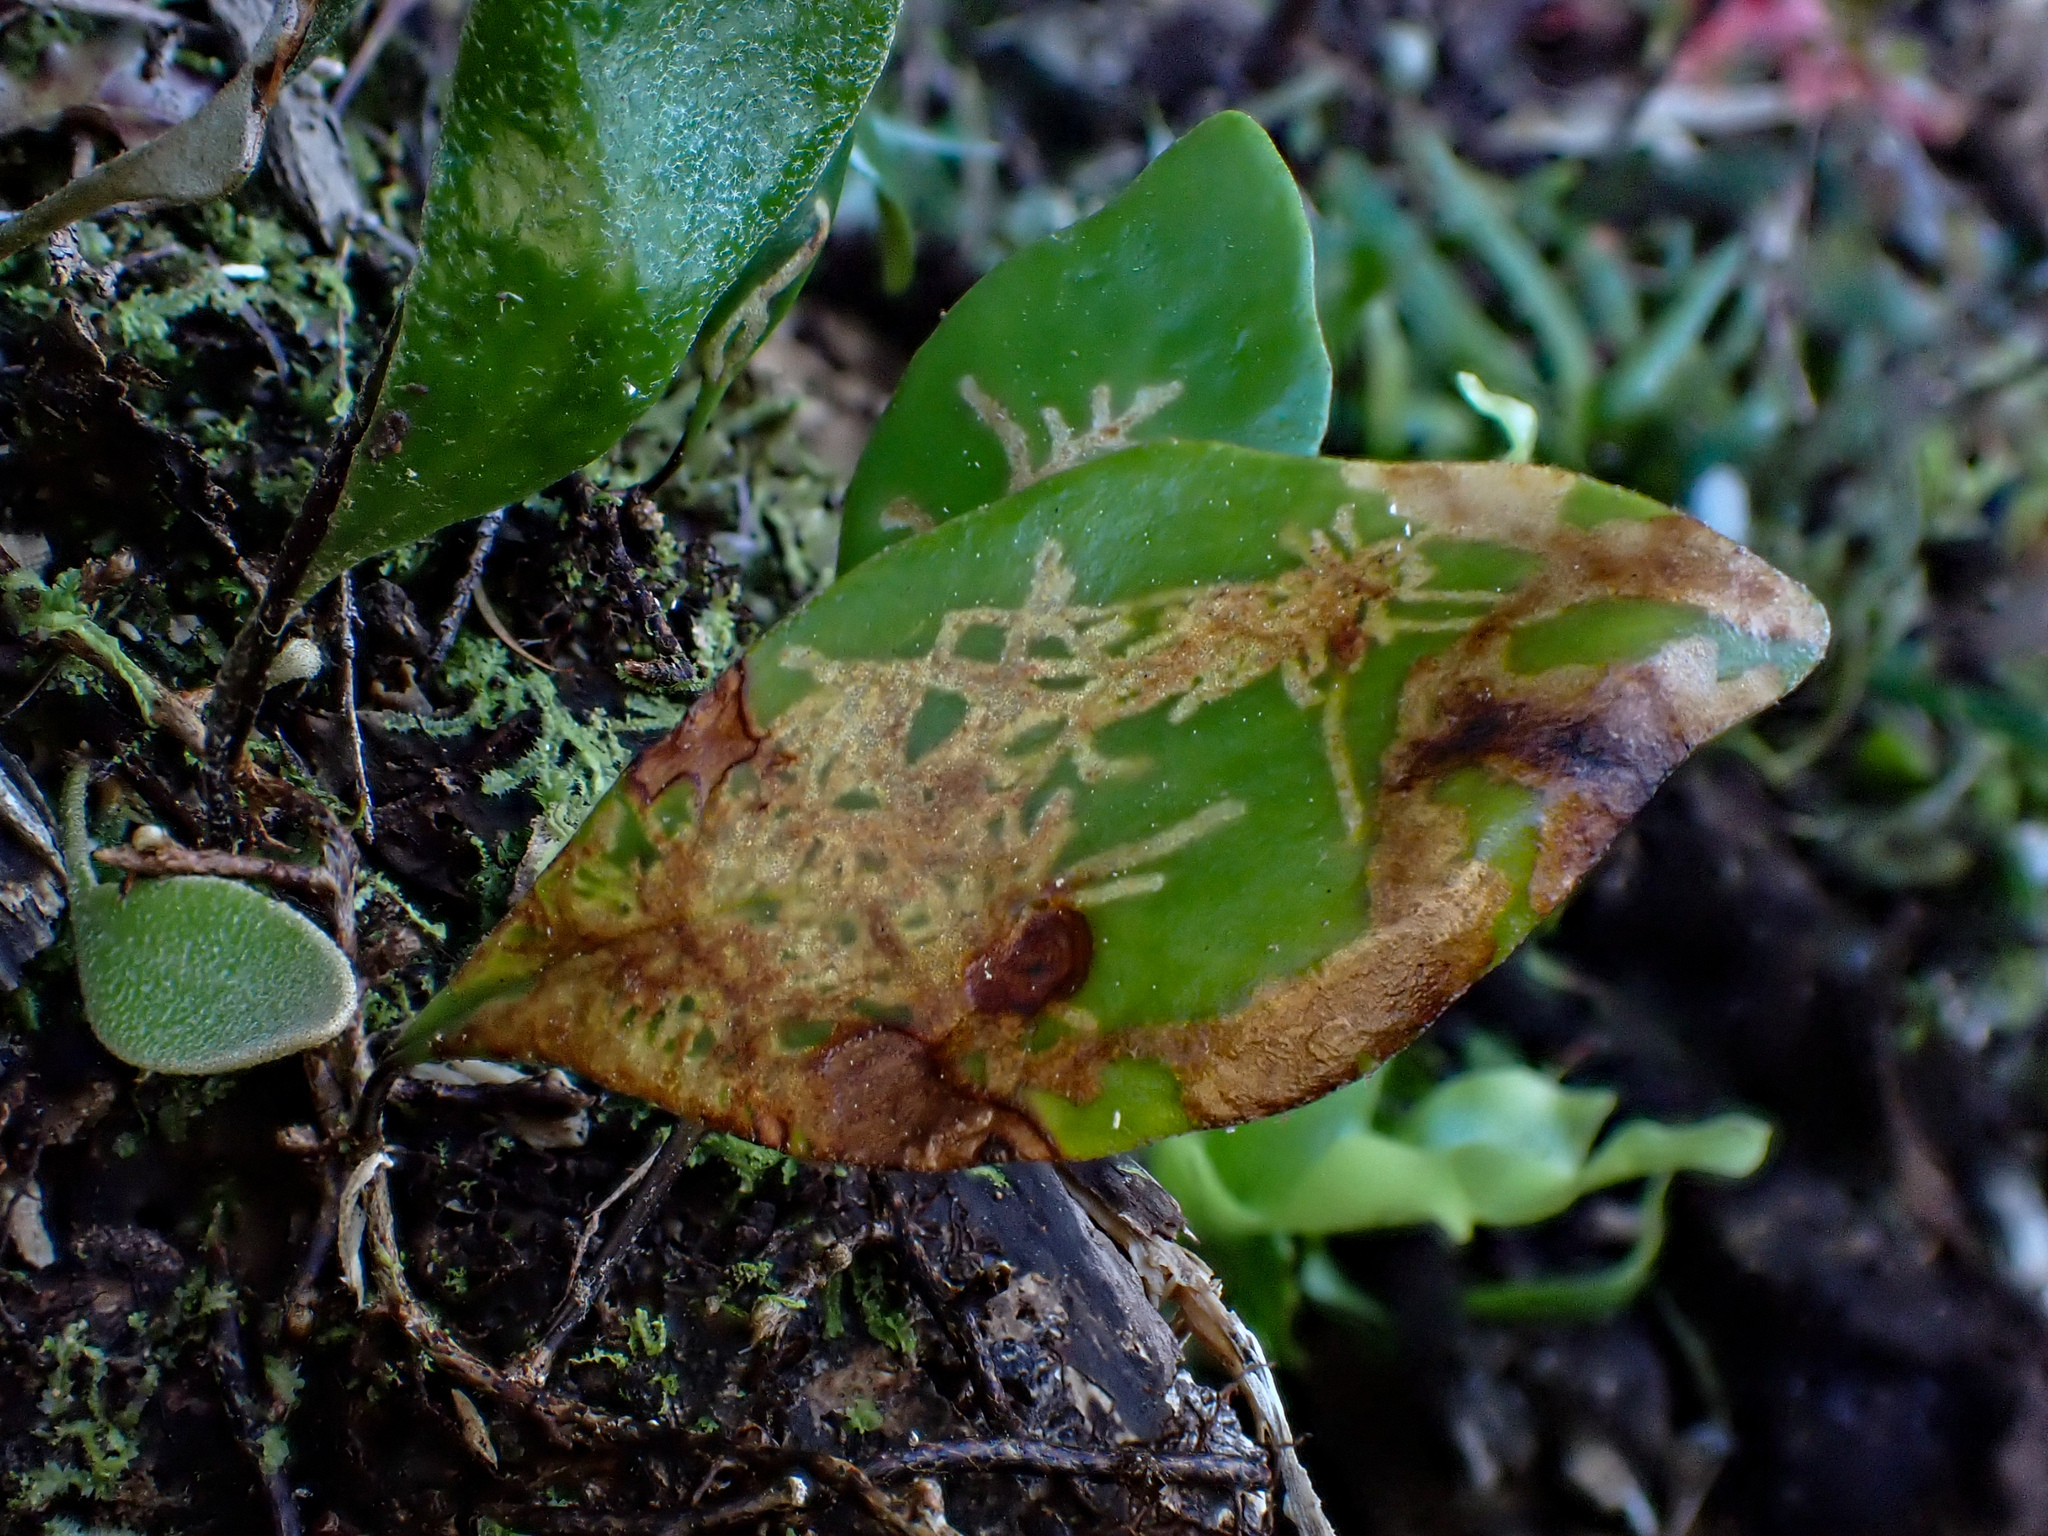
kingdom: Animalia
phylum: Arthropoda
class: Insecta
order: Lepidoptera
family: Tortricidae
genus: Philocryptica
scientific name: Philocryptica polypodii
